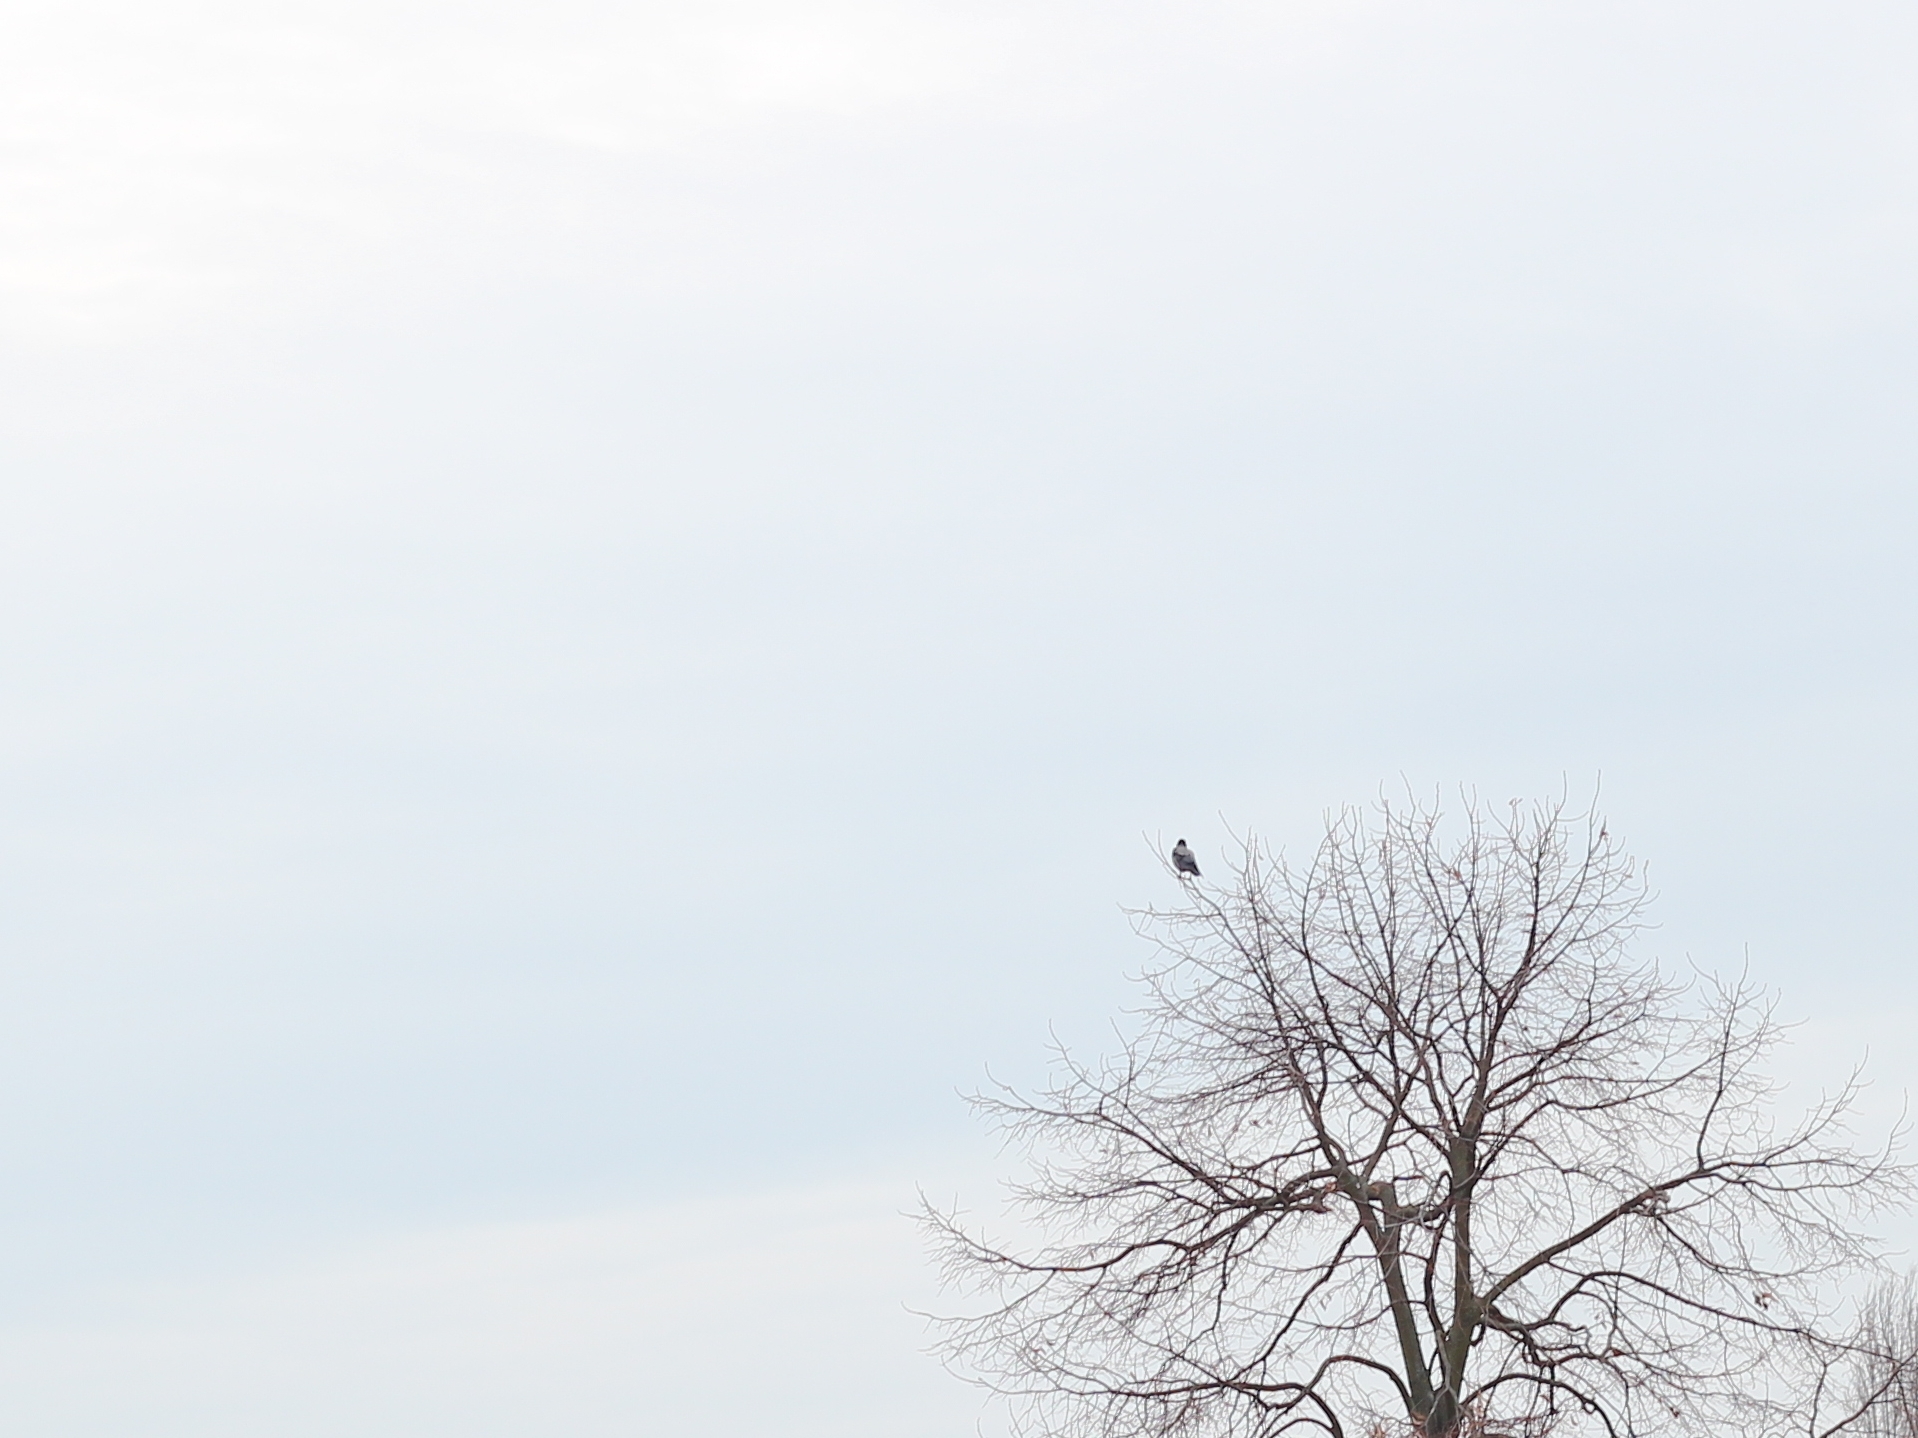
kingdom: Animalia
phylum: Chordata
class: Aves
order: Passeriformes
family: Corvidae
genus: Corvus
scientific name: Corvus cornix
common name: Hooded crow
